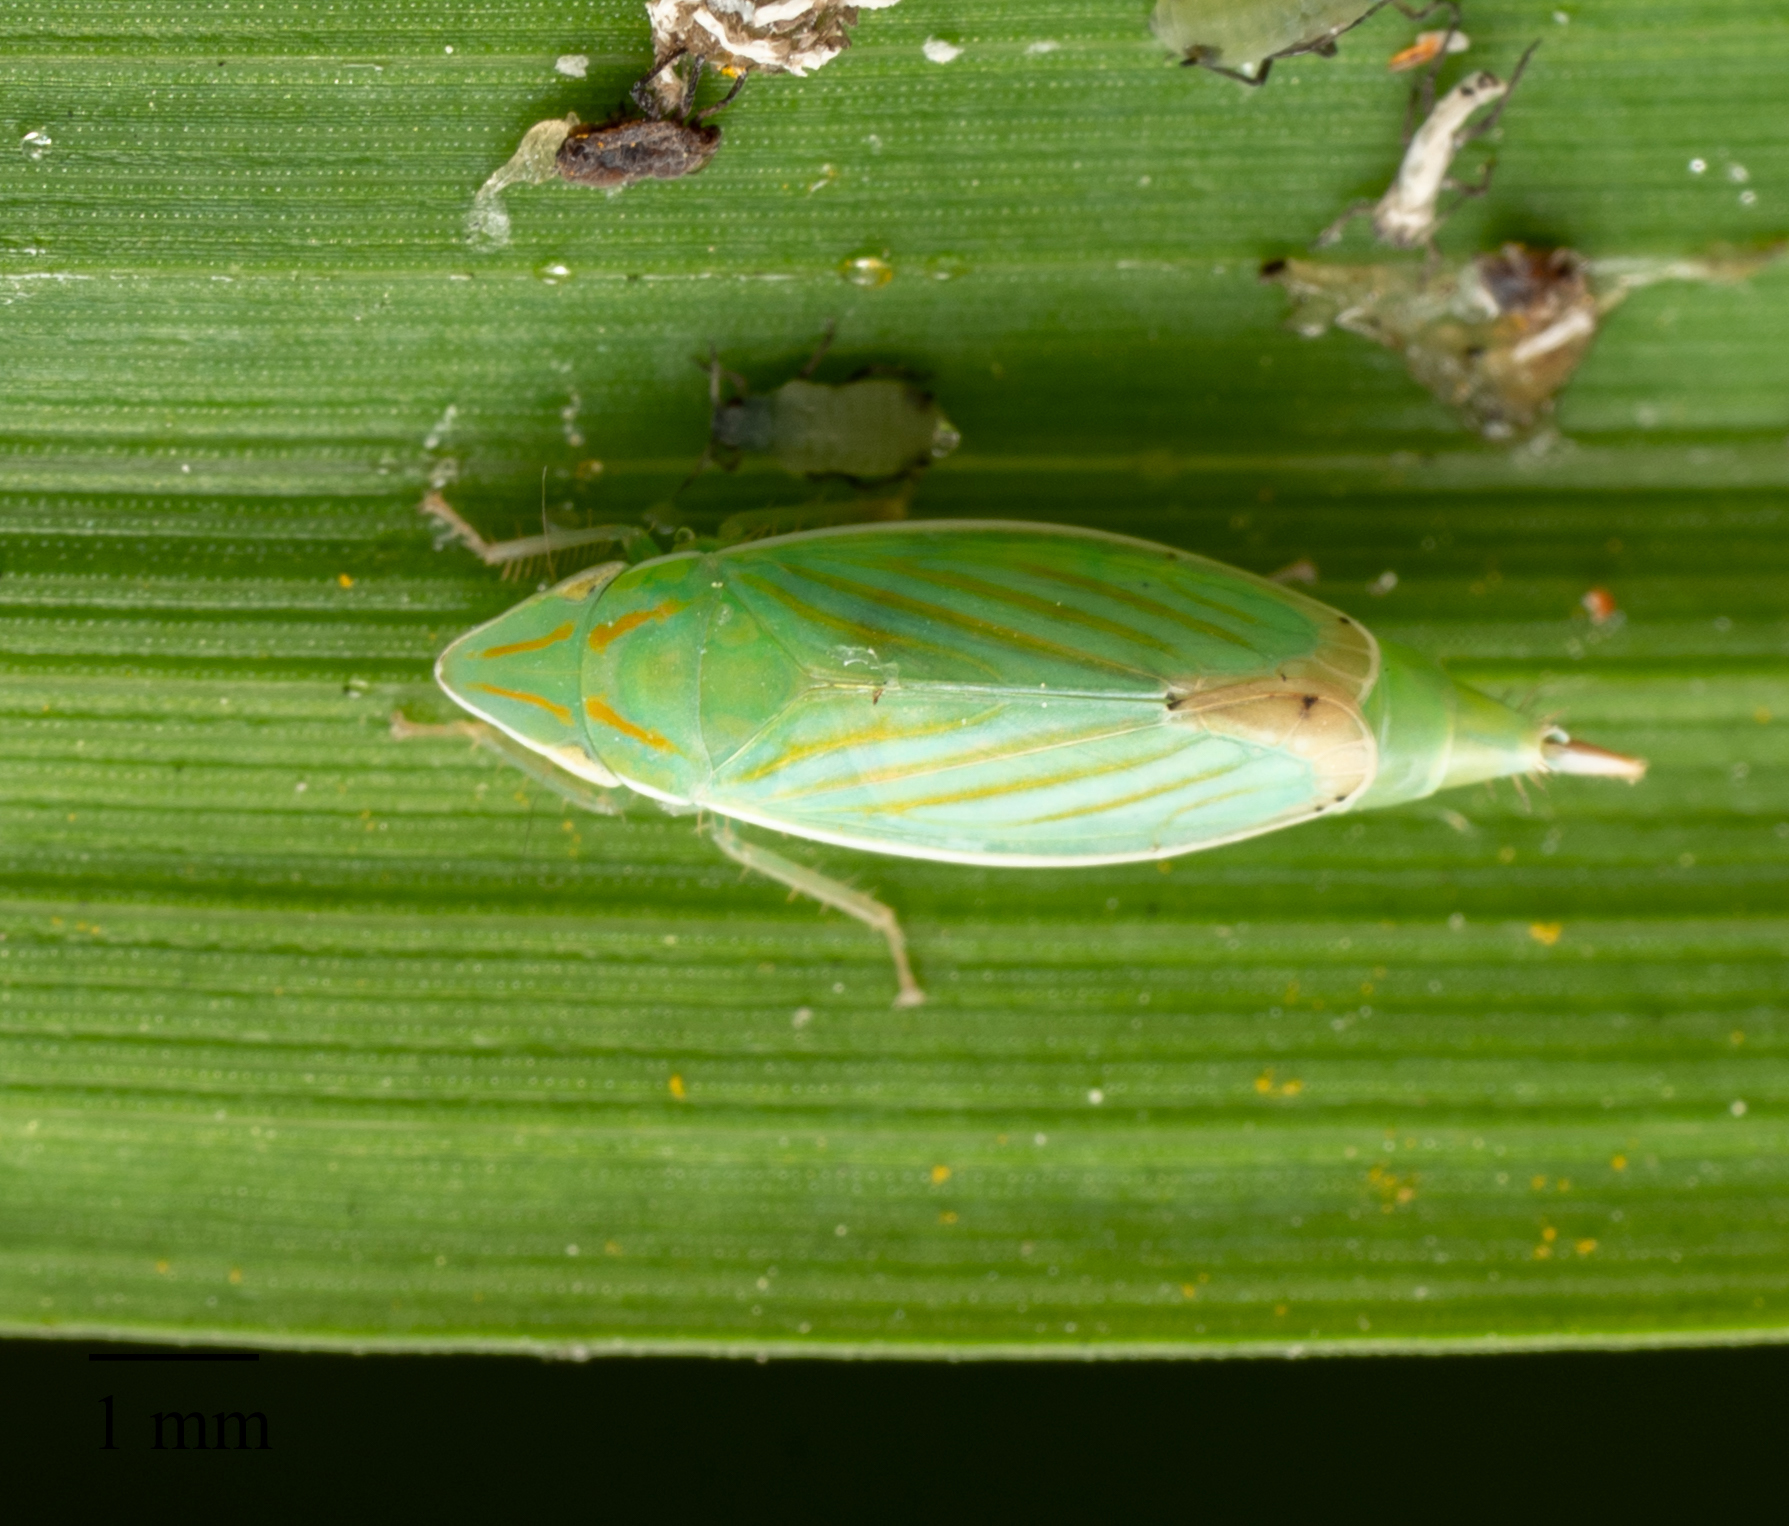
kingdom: Animalia
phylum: Arthropoda
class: Insecta
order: Hemiptera
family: Cicadellidae
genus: Spangbergiella
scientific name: Spangbergiella mexicana
